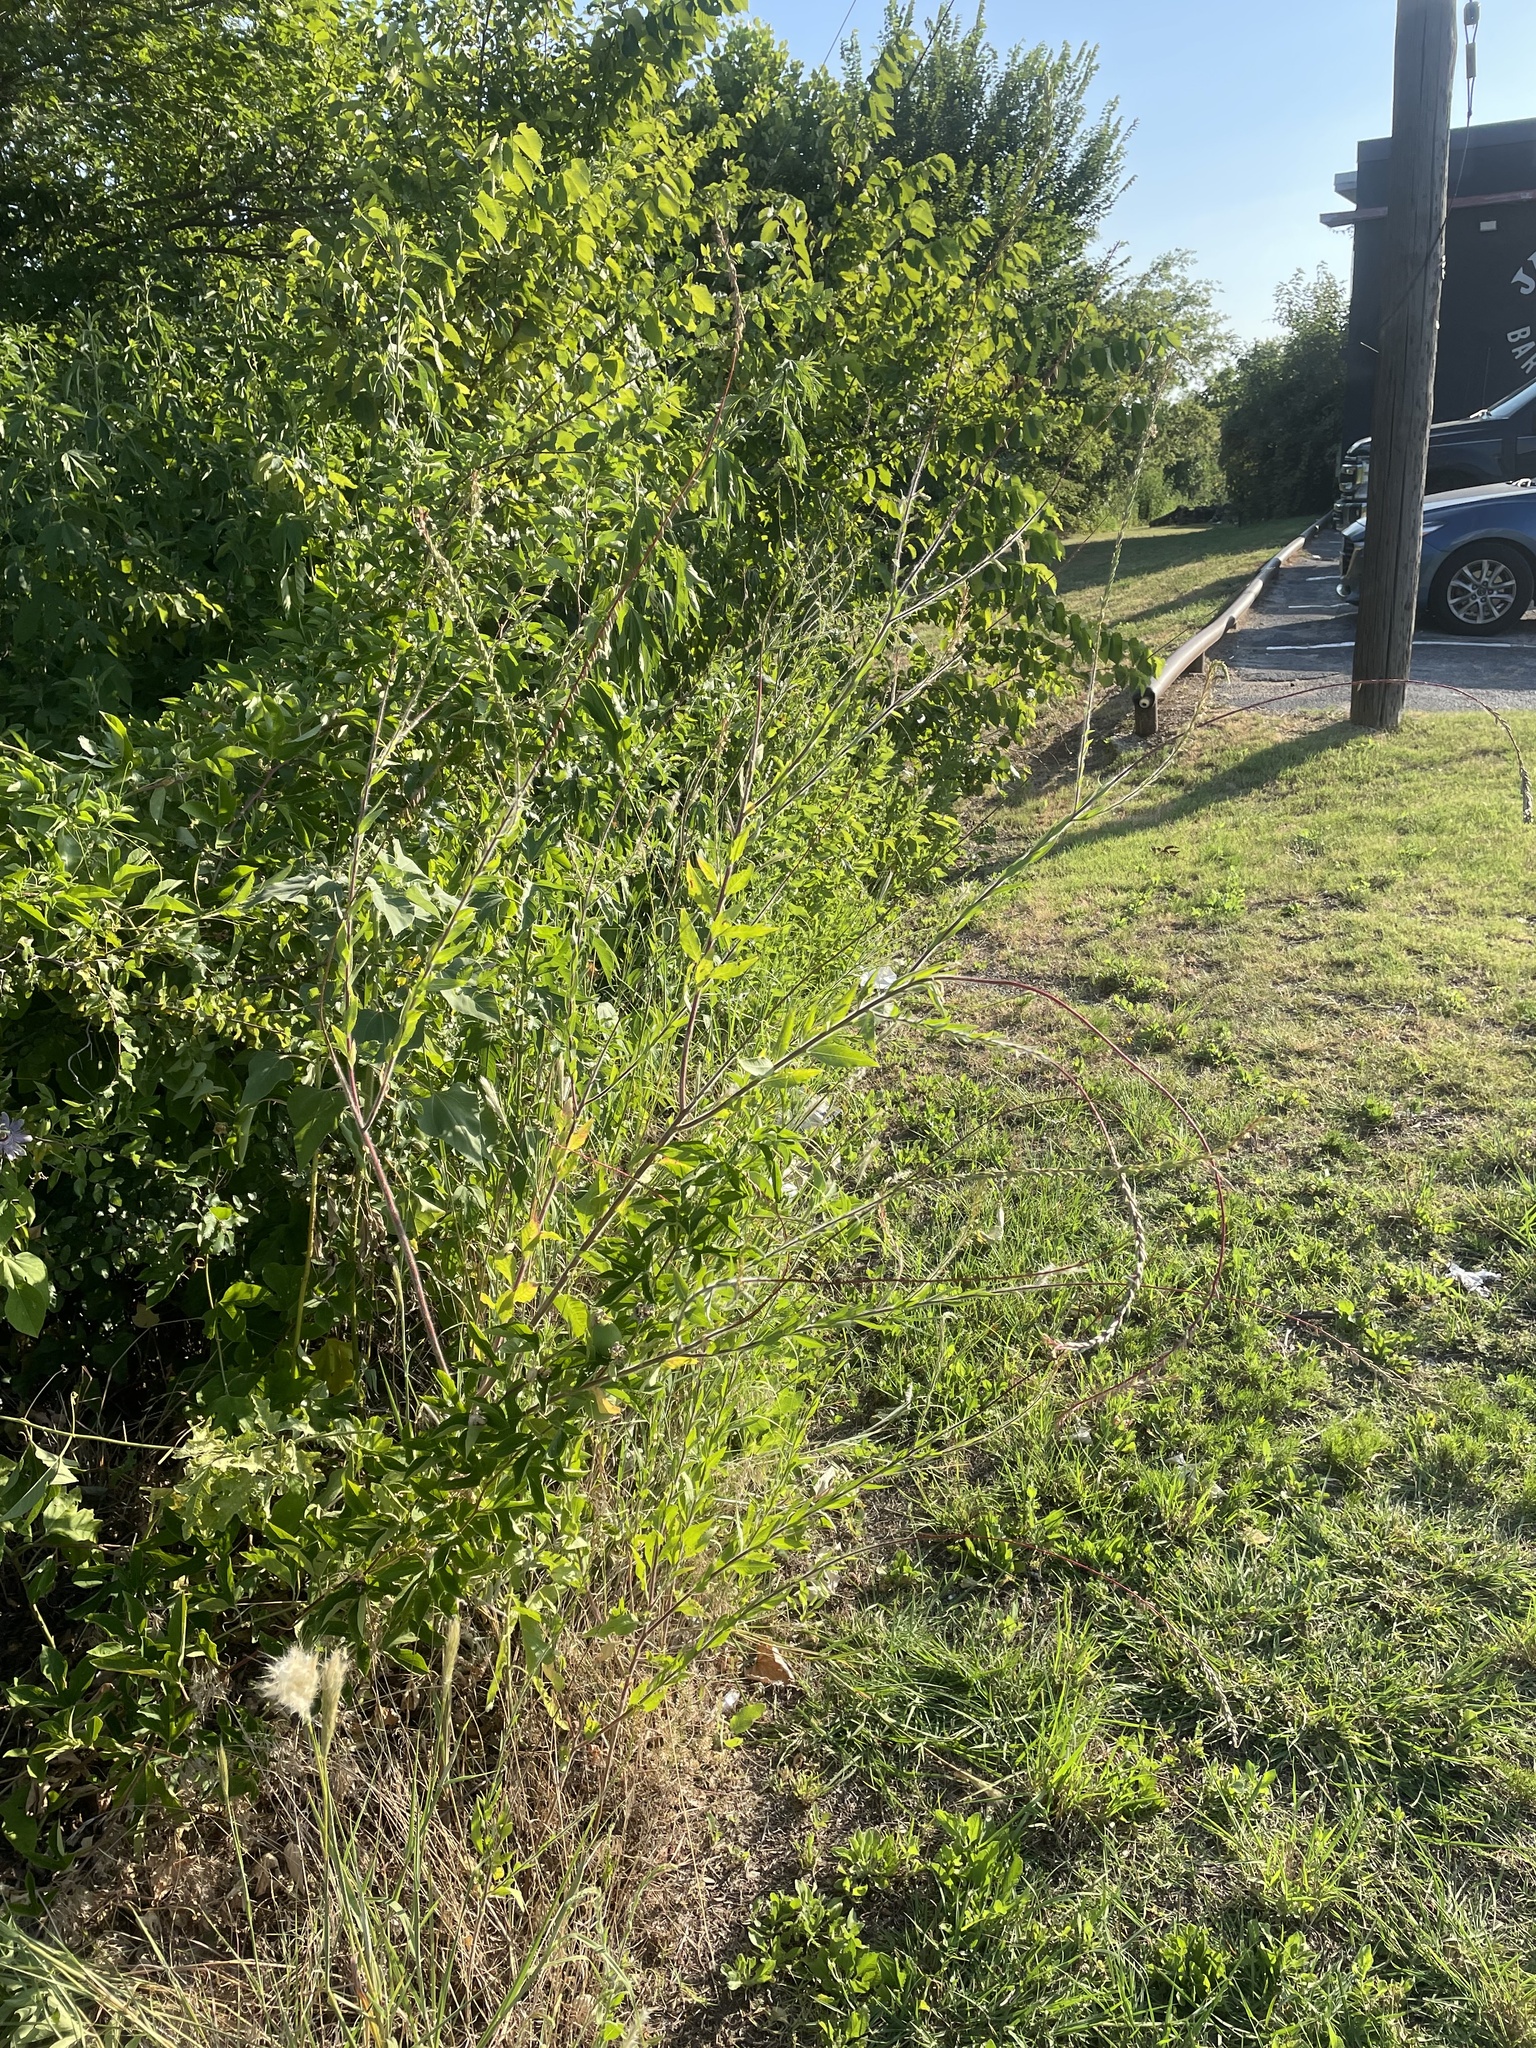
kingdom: Plantae
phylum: Tracheophyta
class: Magnoliopsida
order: Myrtales
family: Onagraceae
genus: Oenothera
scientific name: Oenothera curtiflora
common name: Velvetweed
